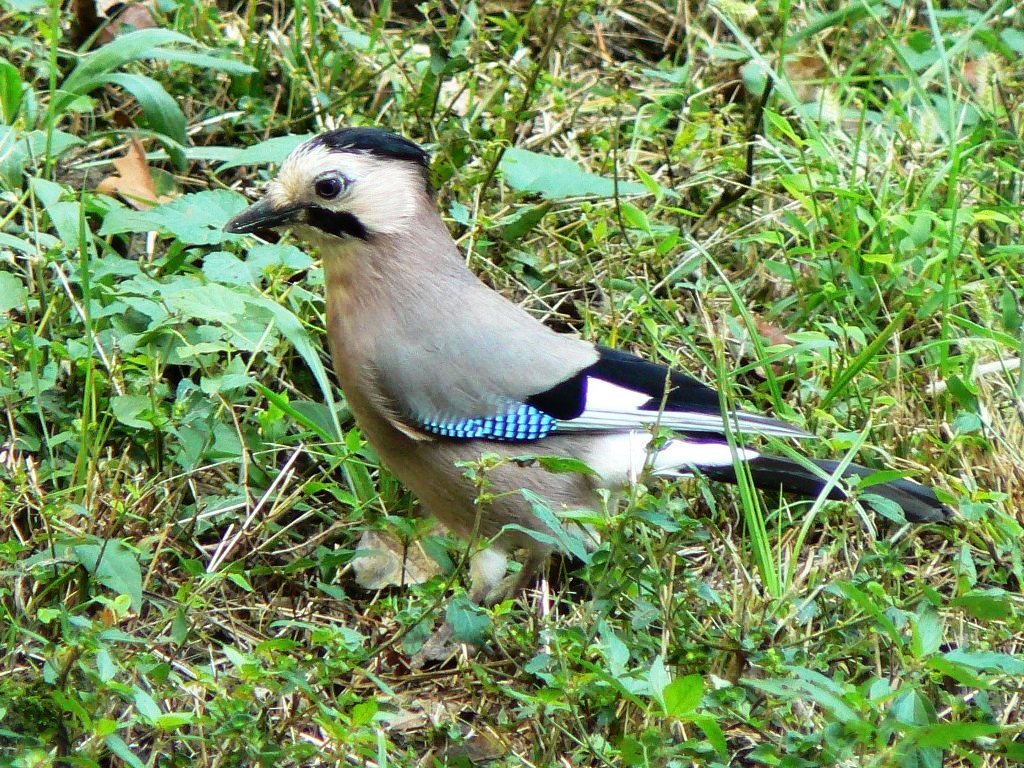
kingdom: Animalia
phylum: Chordata
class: Aves
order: Passeriformes
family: Corvidae
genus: Garrulus
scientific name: Garrulus glandarius
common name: Eurasian jay
